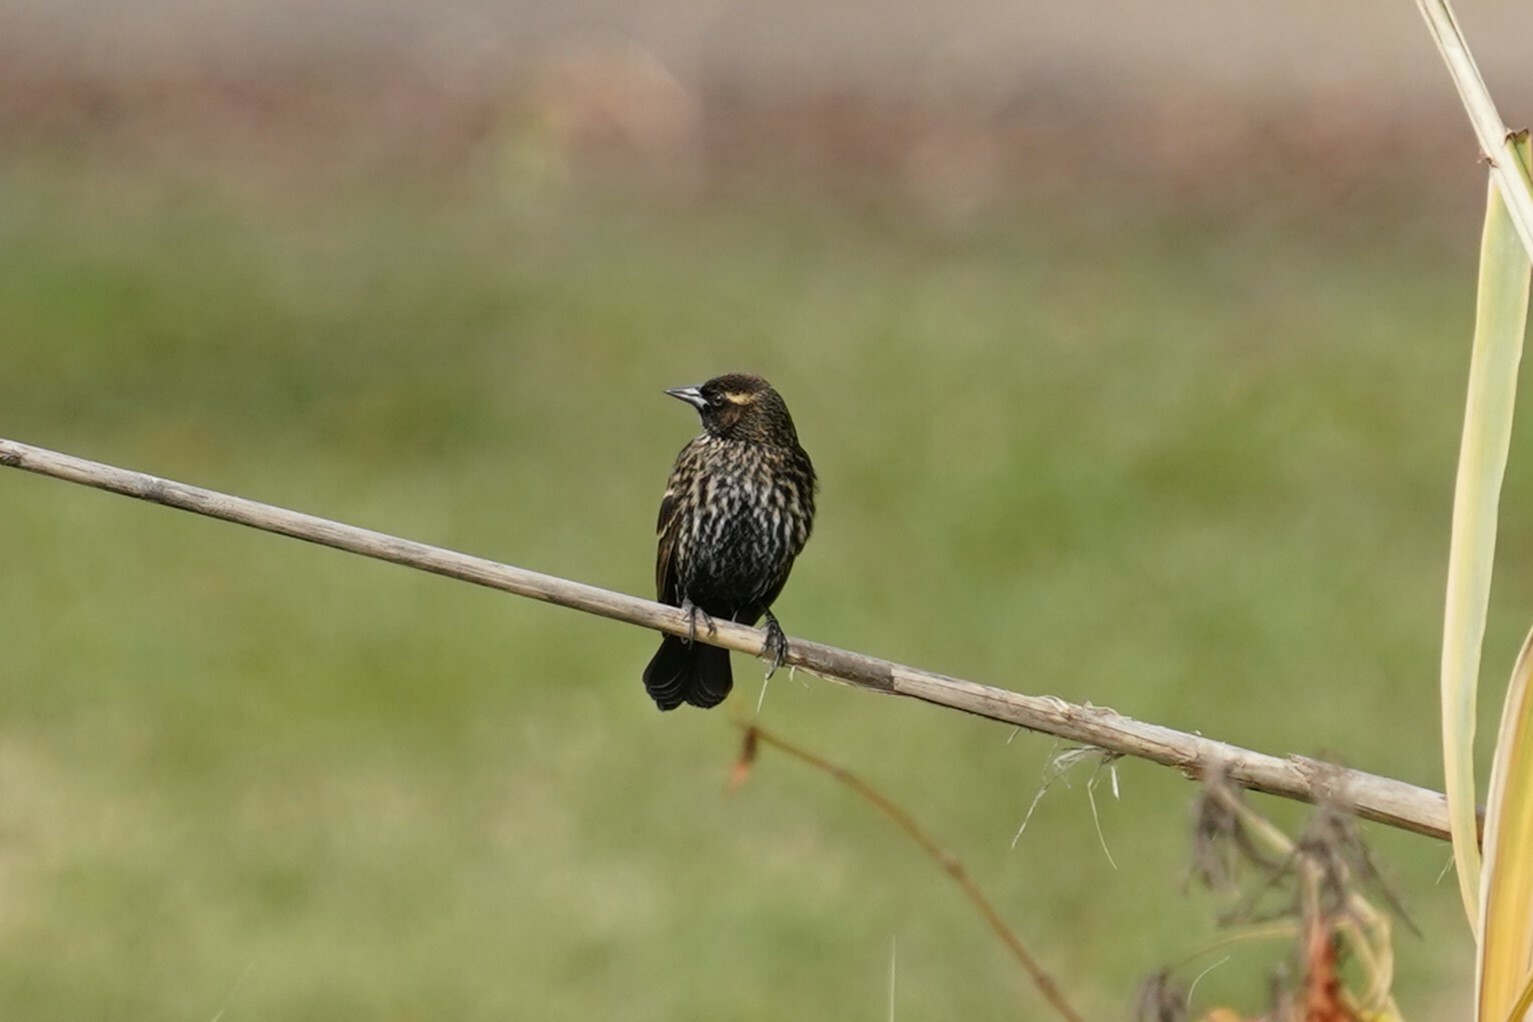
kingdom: Animalia
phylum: Chordata
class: Aves
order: Passeriformes
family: Icteridae
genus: Agelaius
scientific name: Agelaius phoeniceus
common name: Red-winged blackbird
